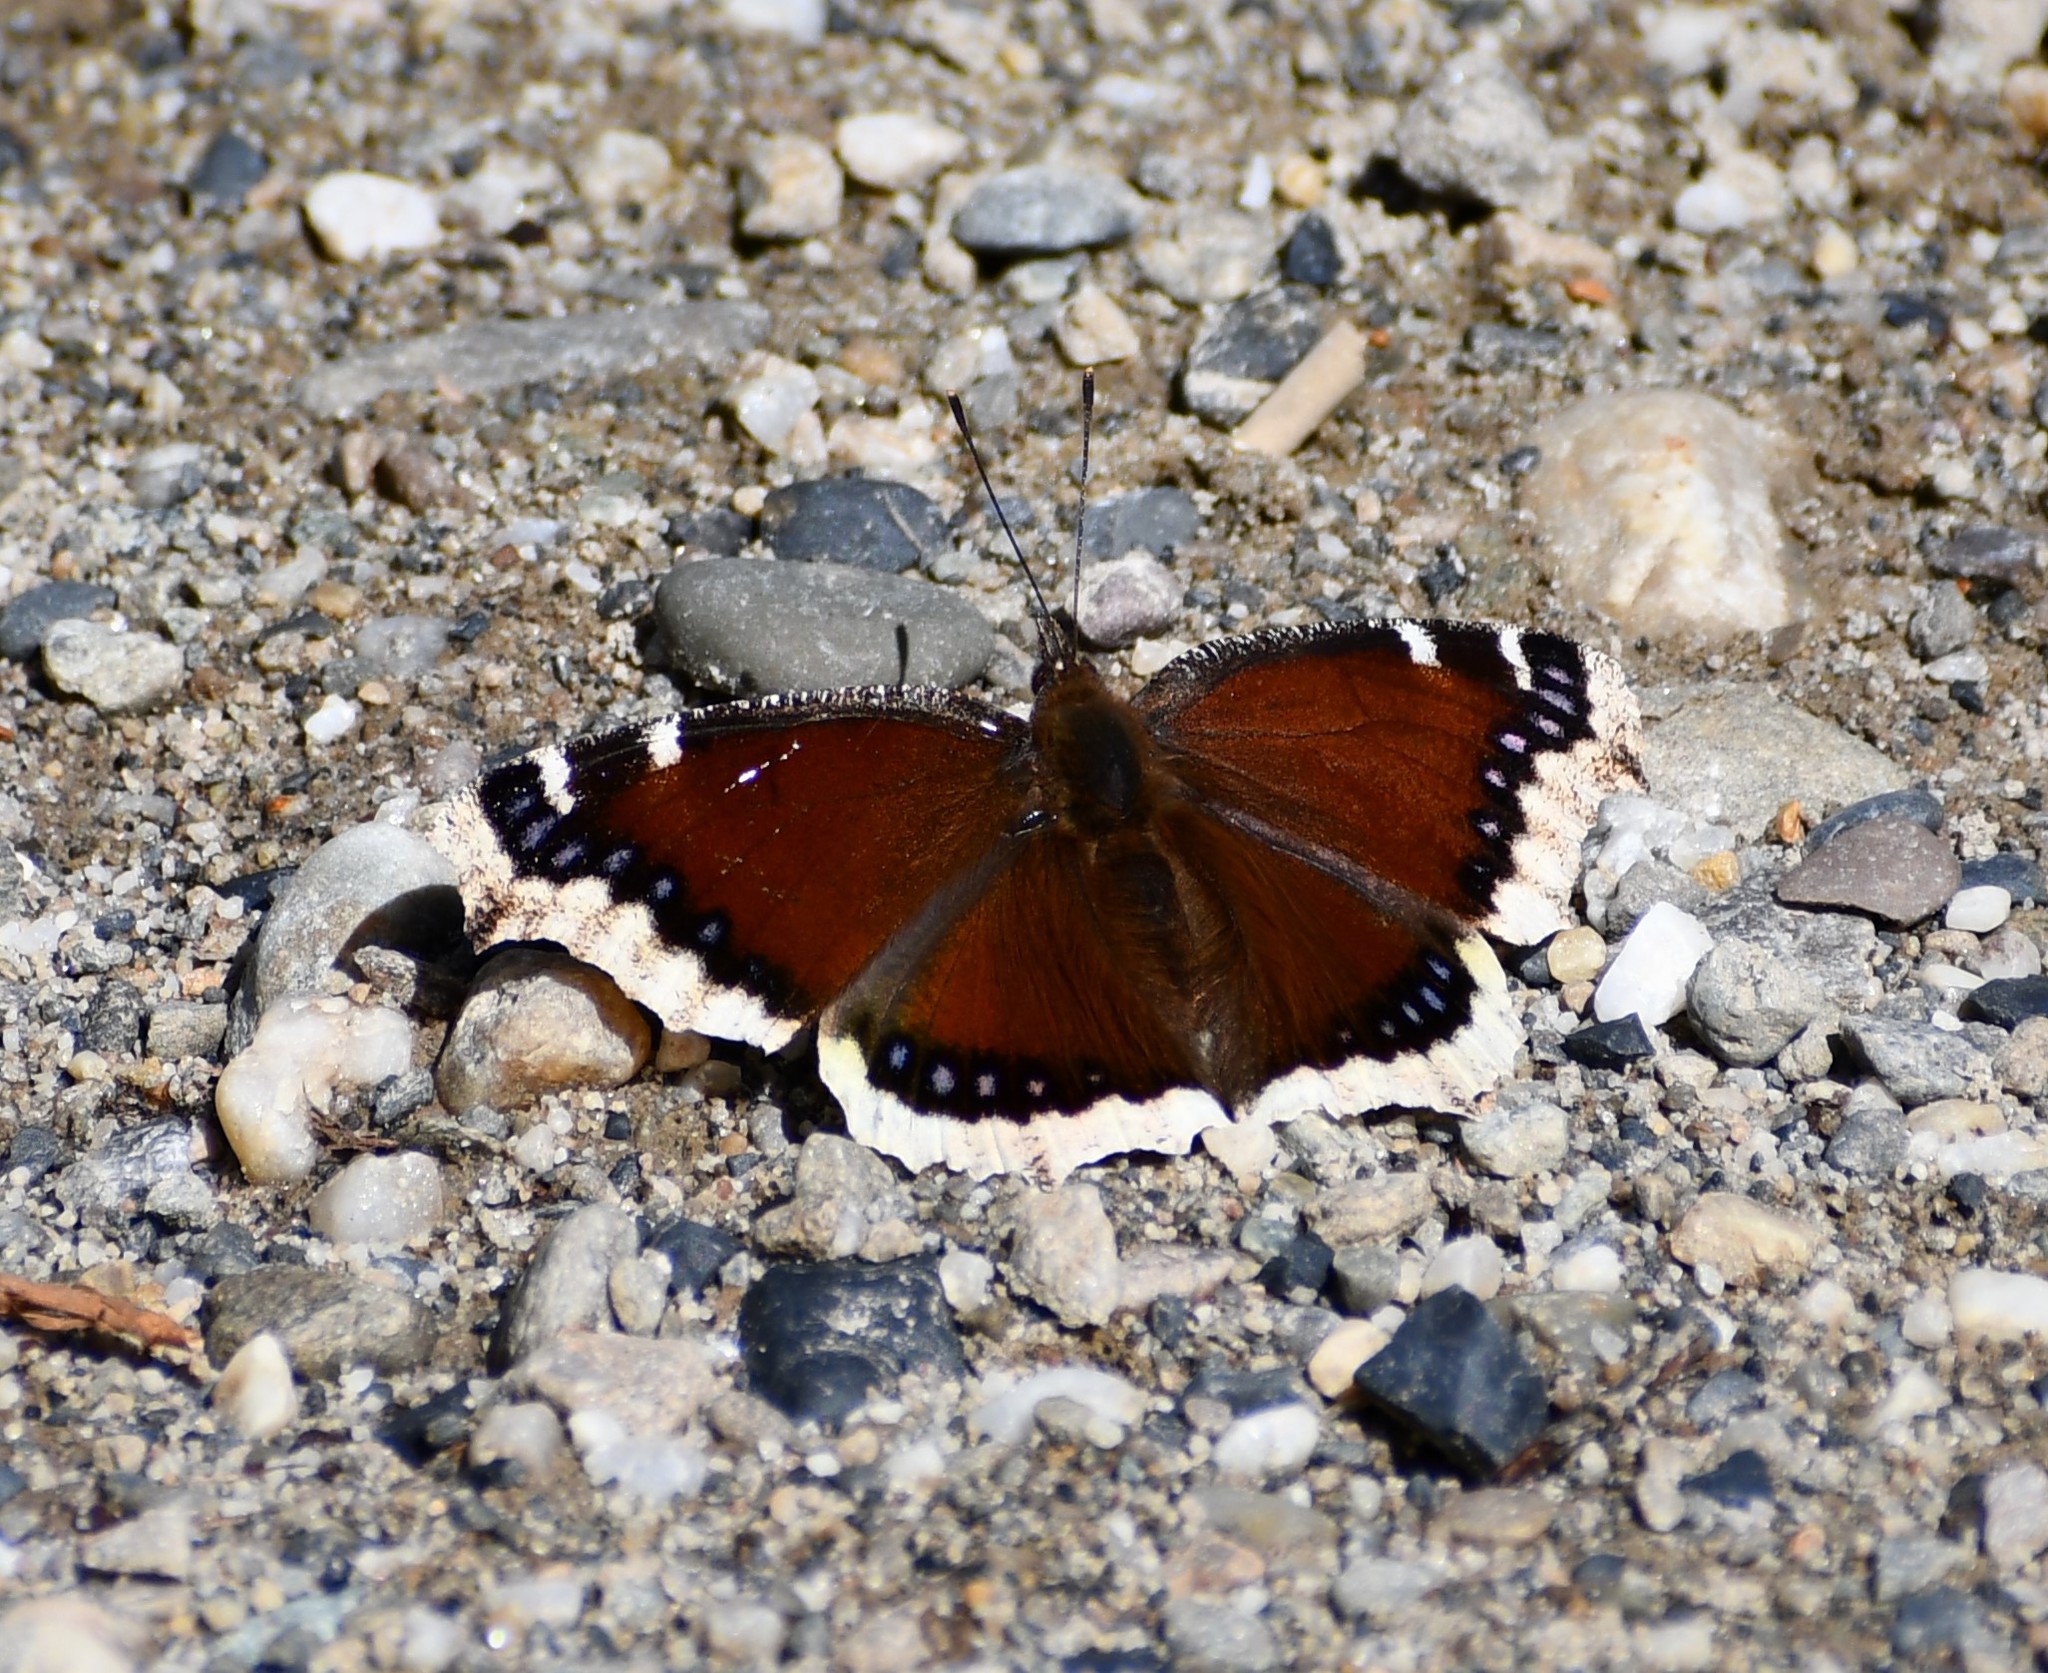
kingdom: Animalia
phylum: Arthropoda
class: Insecta
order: Lepidoptera
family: Nymphalidae
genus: Nymphalis
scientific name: Nymphalis antiopa
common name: Camberwell beauty
